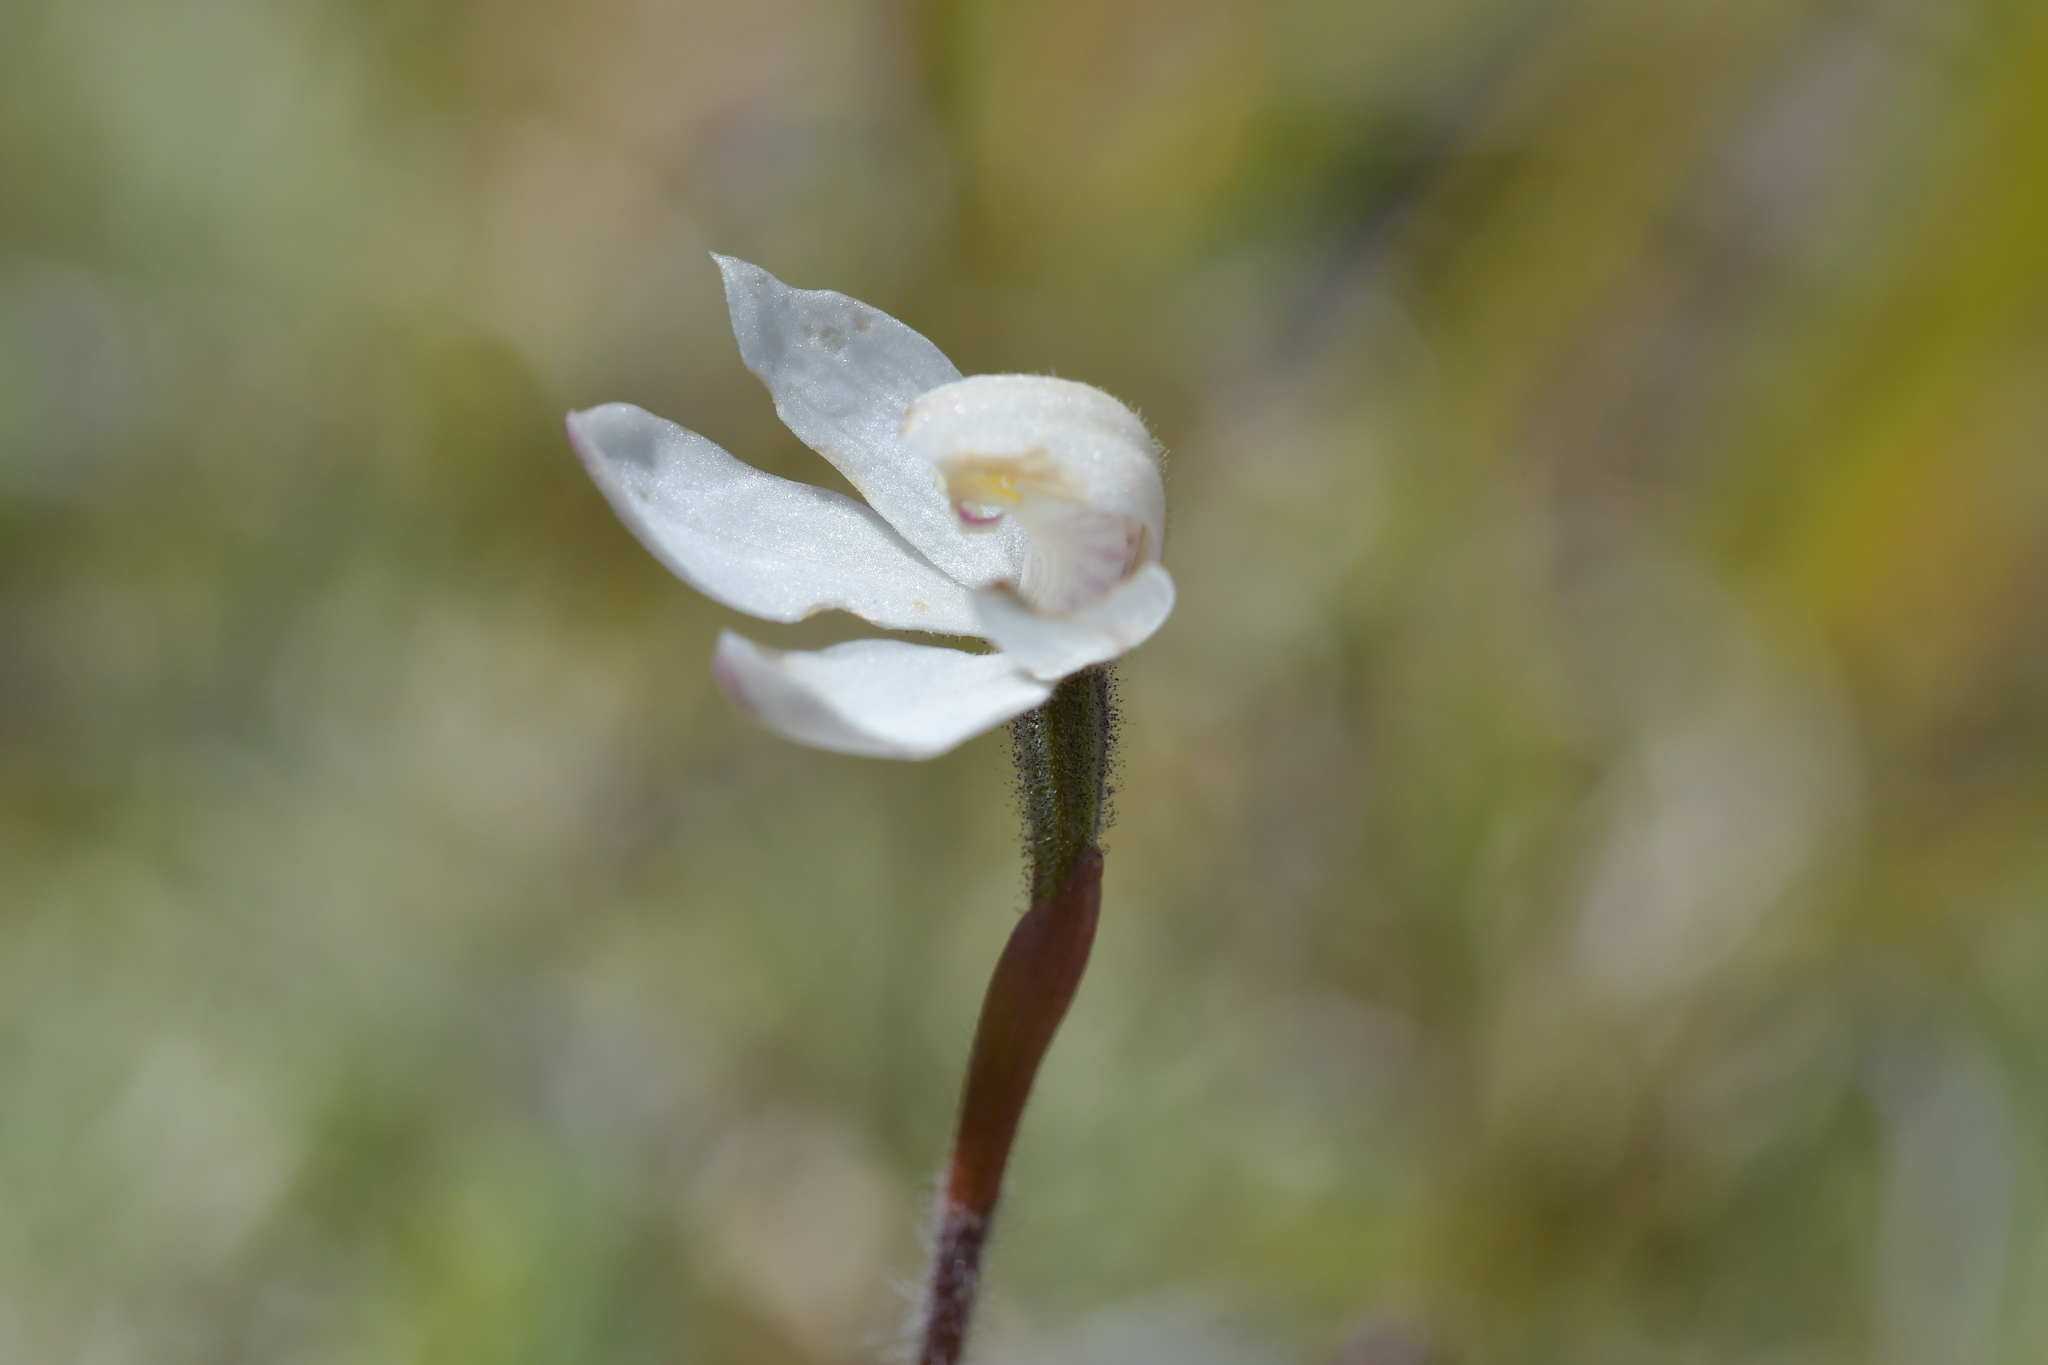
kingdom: Plantae
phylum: Tracheophyta
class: Liliopsida
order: Asparagales
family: Orchidaceae
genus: Caladenia
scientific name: Caladenia lyallii
